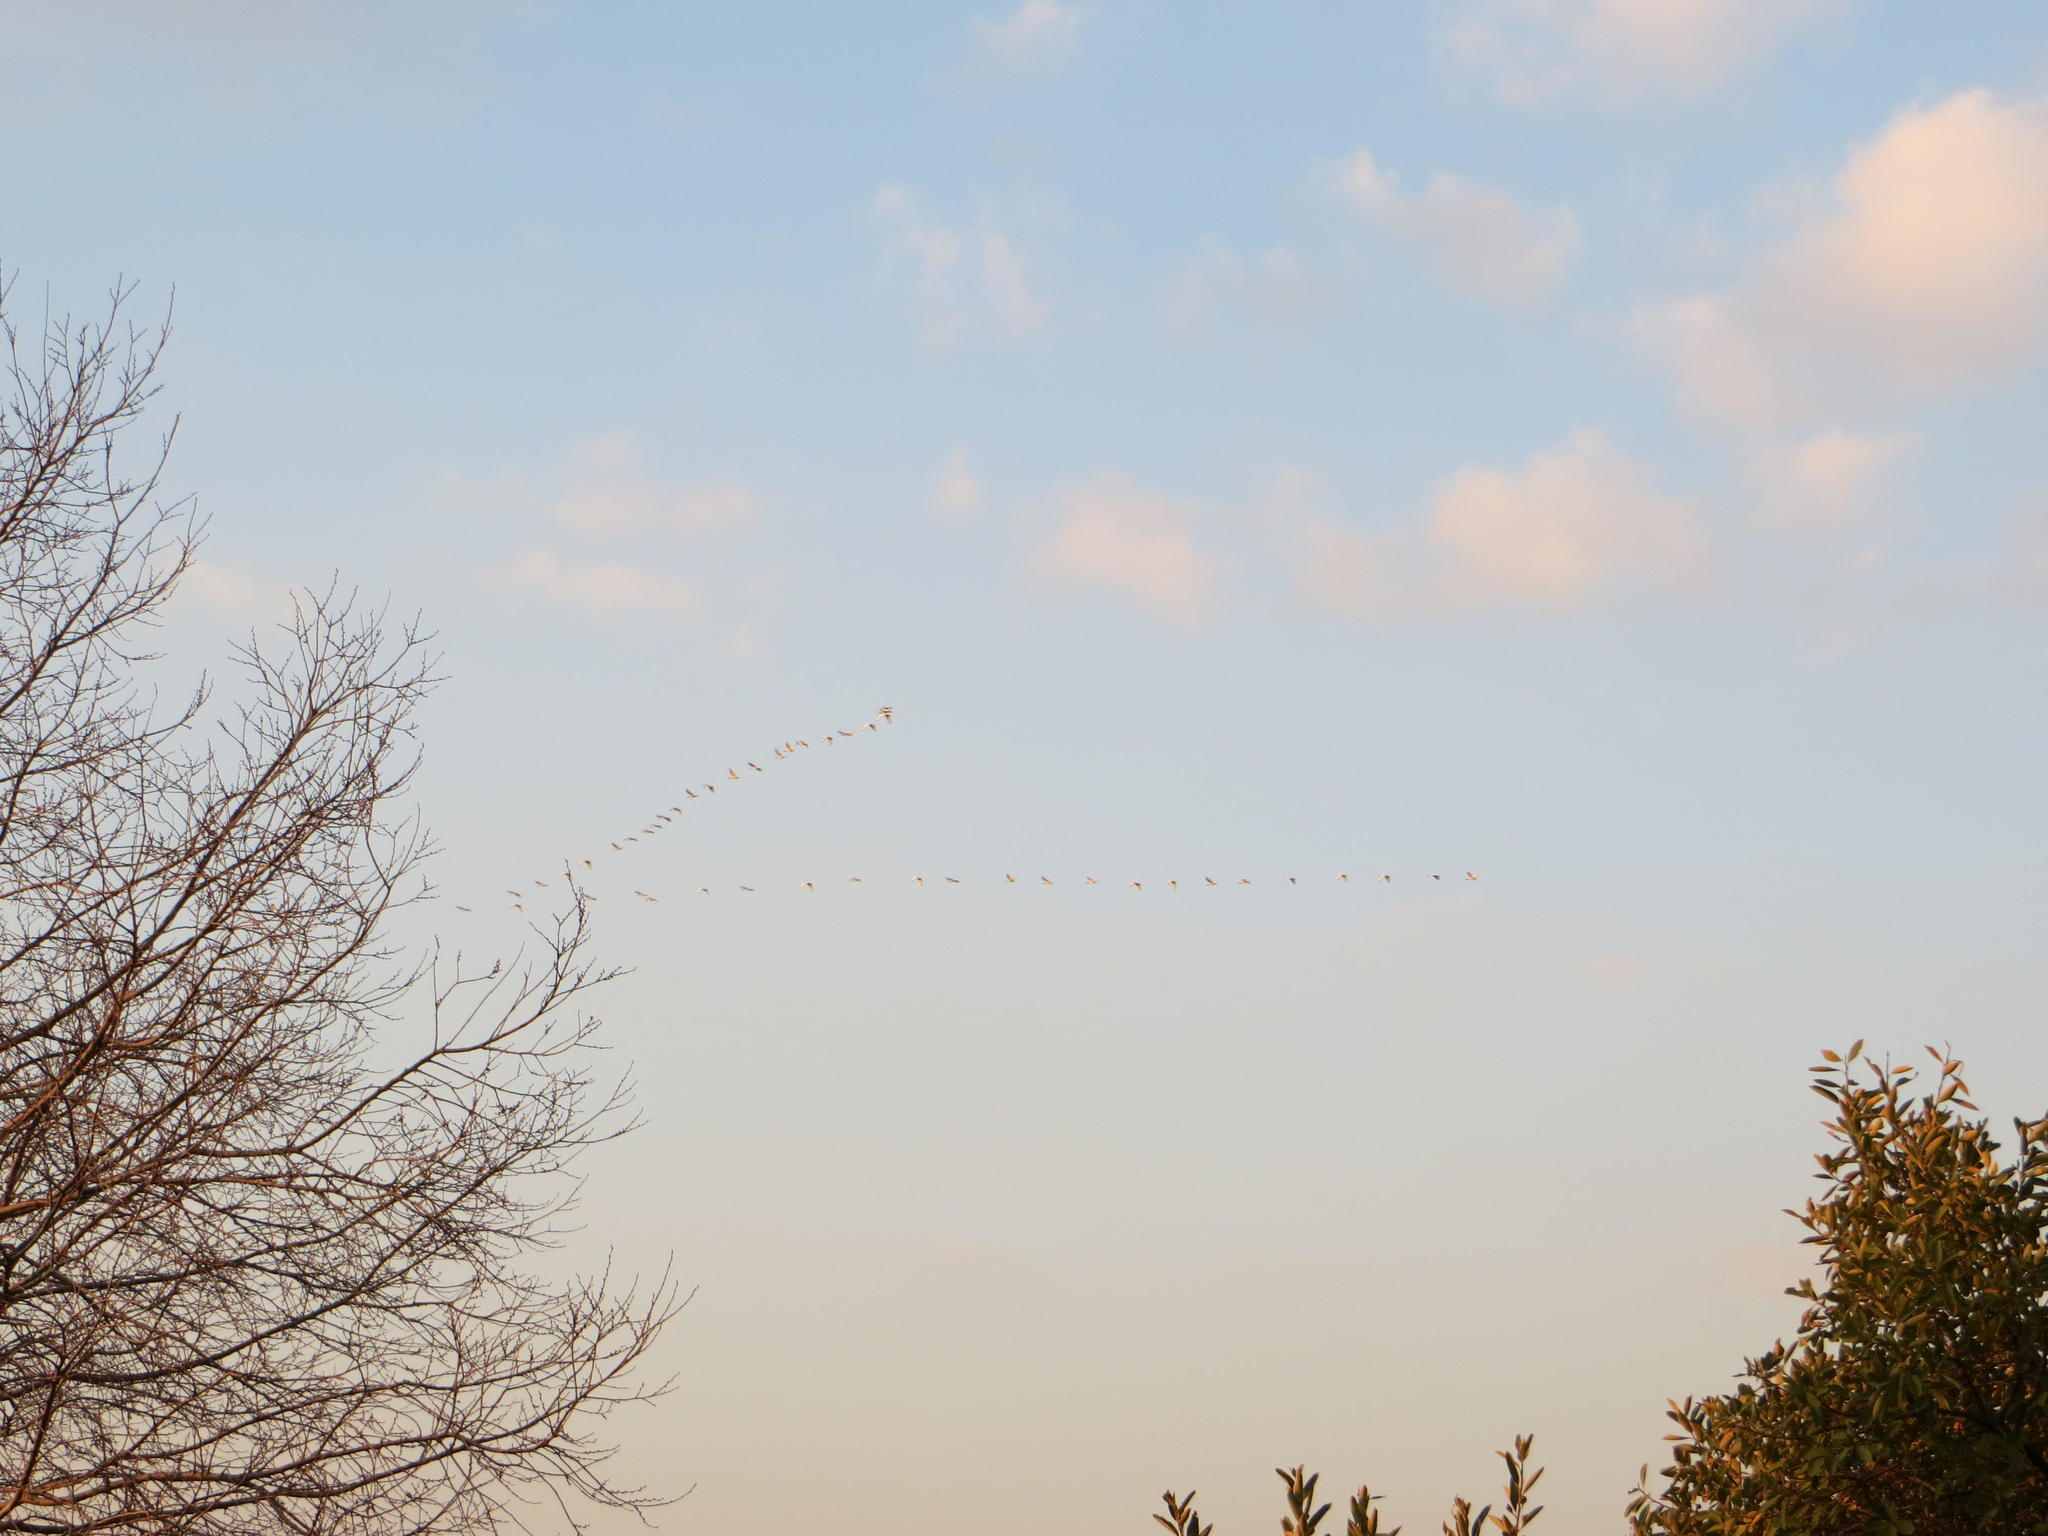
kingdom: Animalia
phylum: Chordata
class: Aves
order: Pelecaniformes
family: Threskiornithidae
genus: Threskiornis
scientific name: Threskiornis aethiopicus
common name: Sacred ibis
